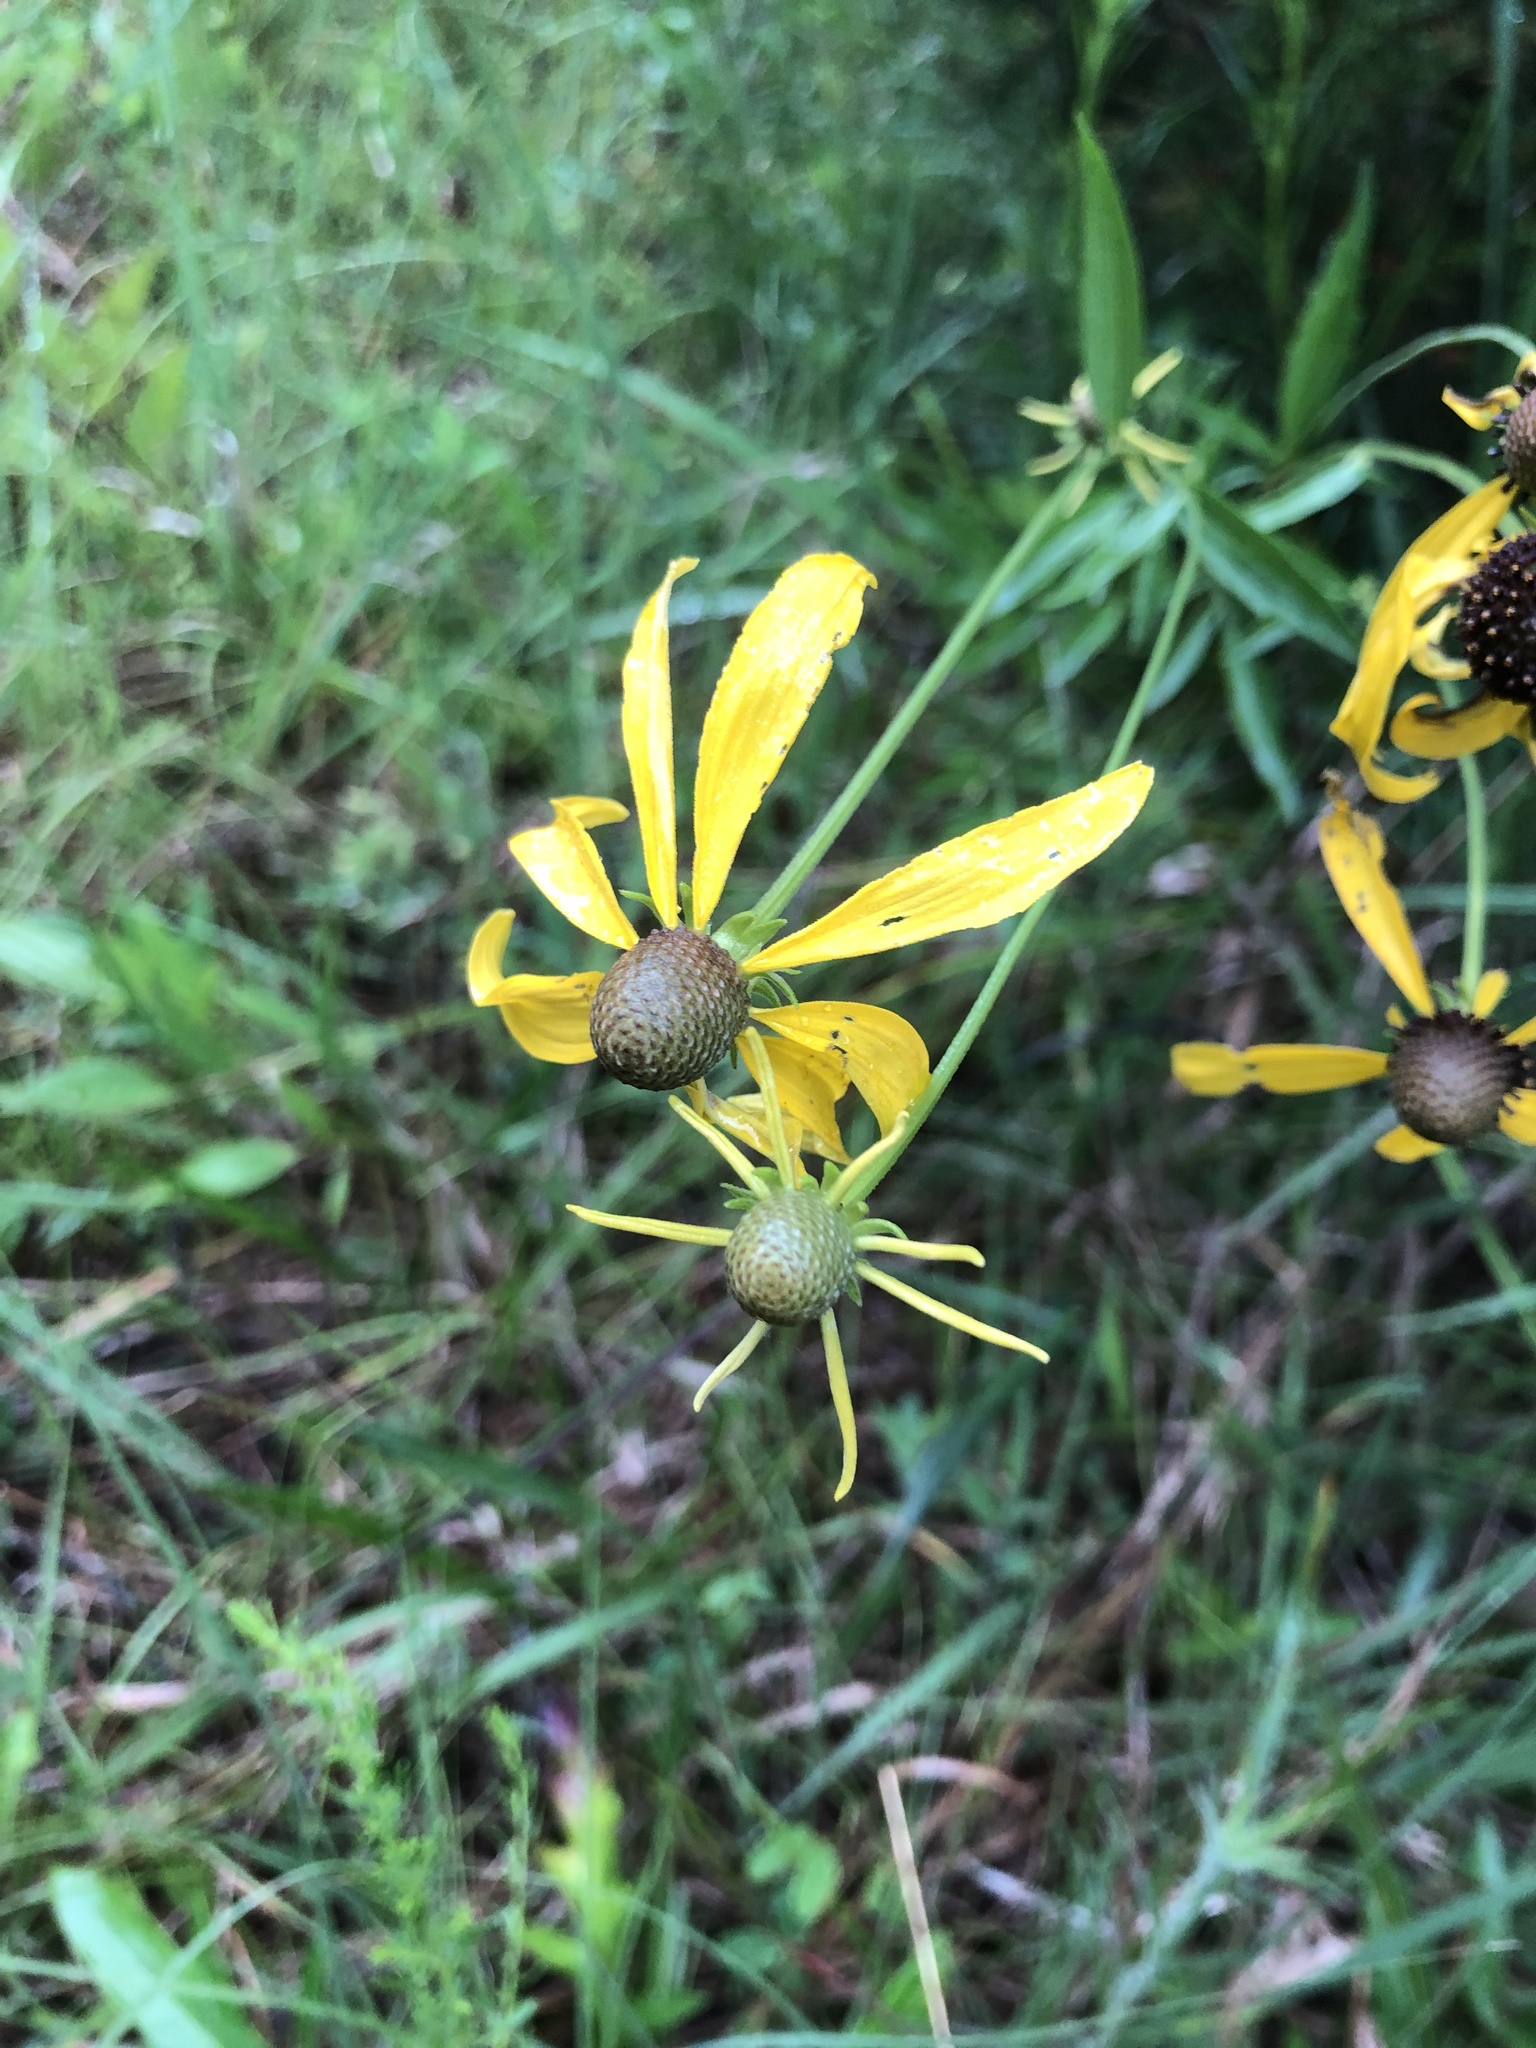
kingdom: Plantae
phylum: Tracheophyta
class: Magnoliopsida
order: Asterales
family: Asteraceae
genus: Ratibida
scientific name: Ratibida pinnata
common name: Drooping prairie-coneflower
